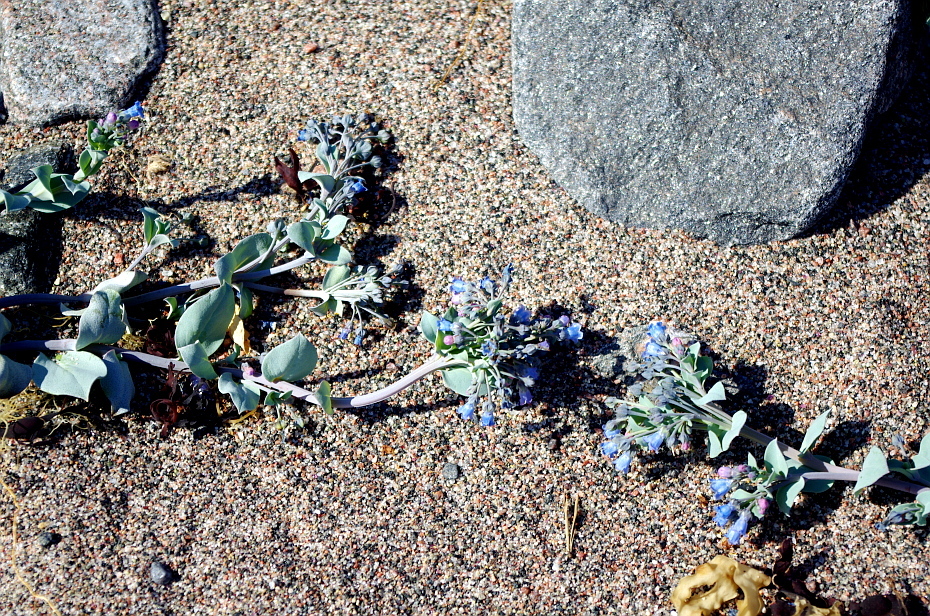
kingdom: Plantae
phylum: Tracheophyta
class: Magnoliopsida
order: Boraginales
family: Boraginaceae
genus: Mertensia
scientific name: Mertensia maritima
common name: Oysterplant
